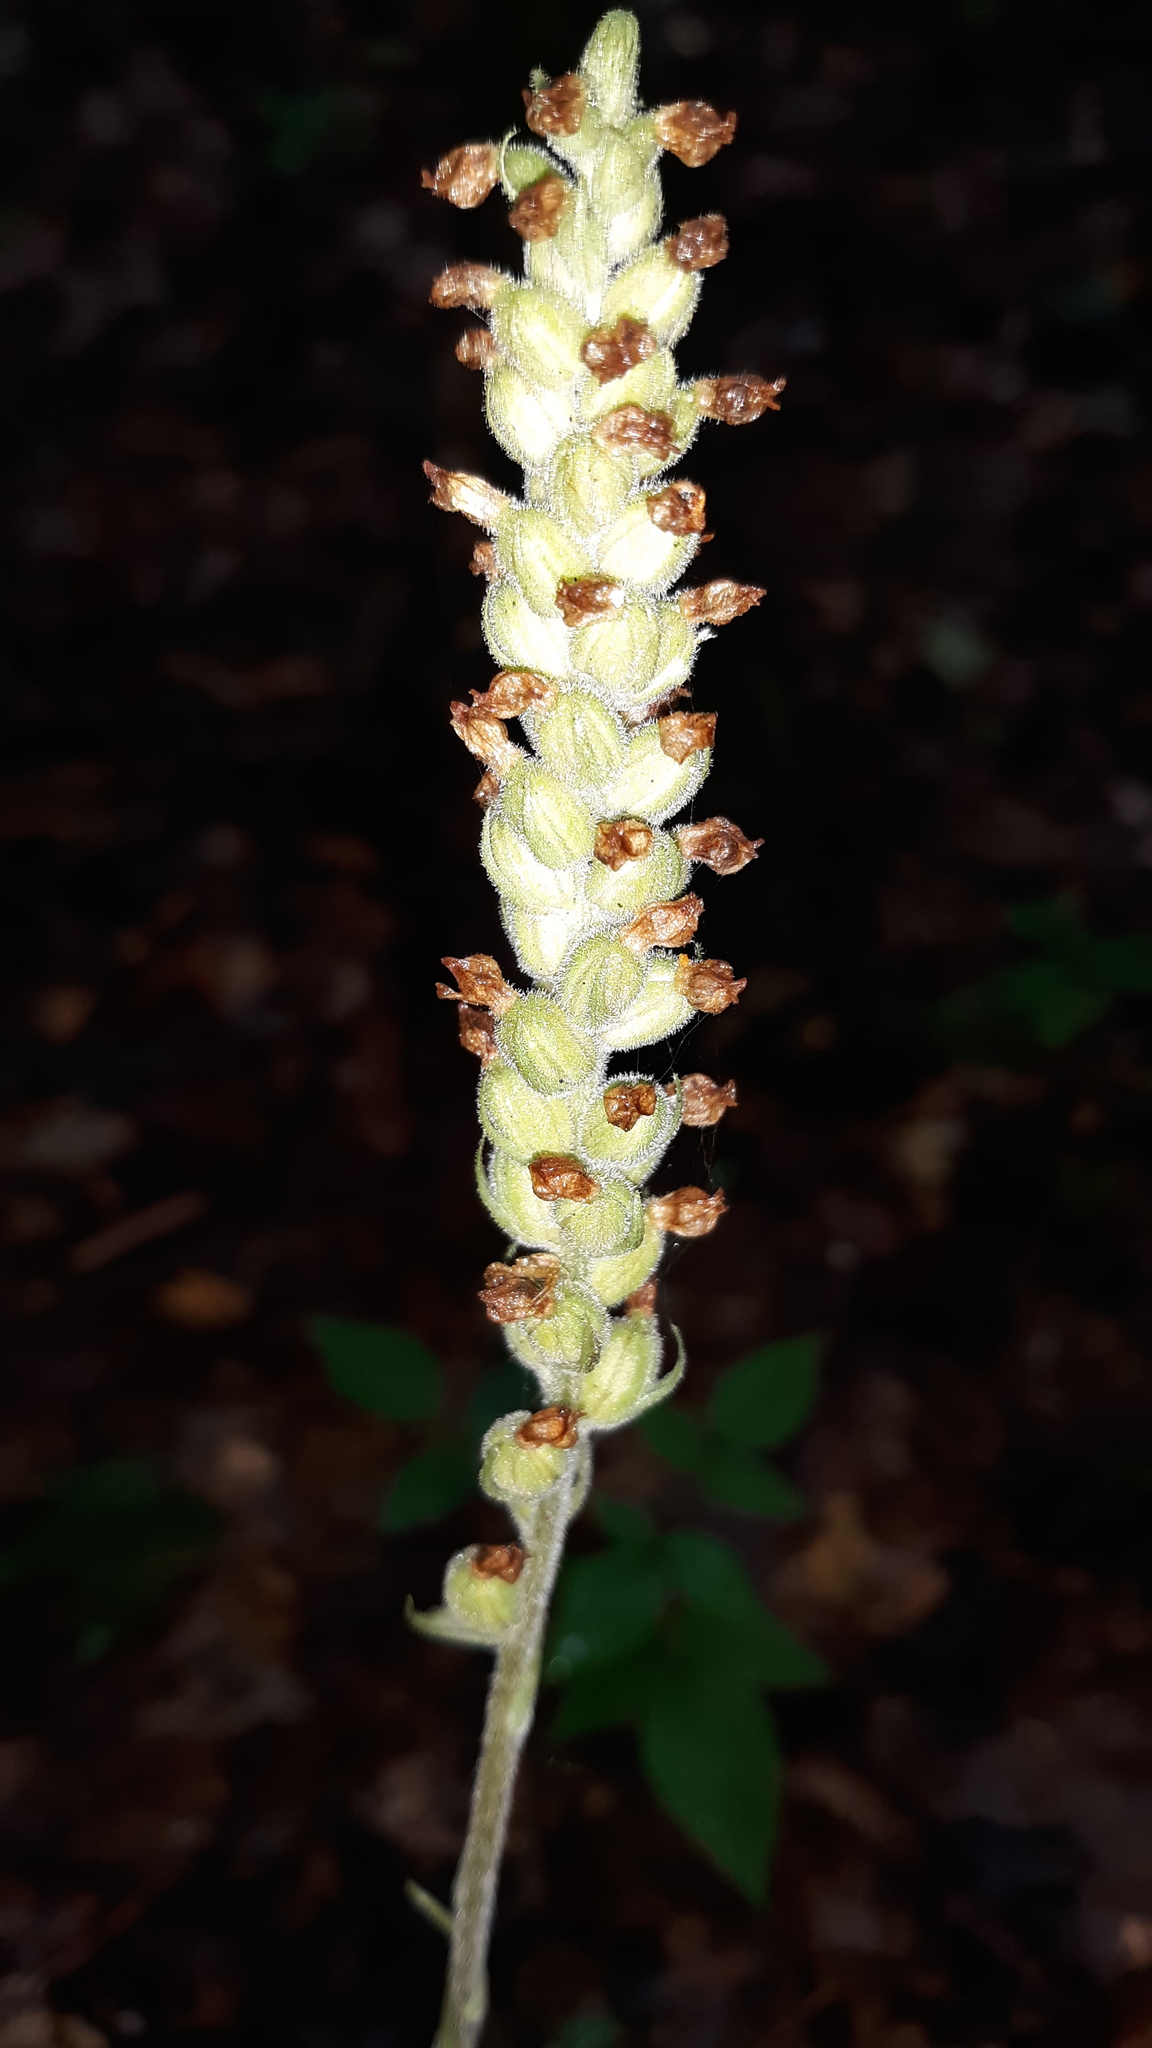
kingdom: Plantae
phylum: Tracheophyta
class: Liliopsida
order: Asparagales
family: Orchidaceae
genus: Goodyera
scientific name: Goodyera pubescens
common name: Downy rattlesnake-plantain
